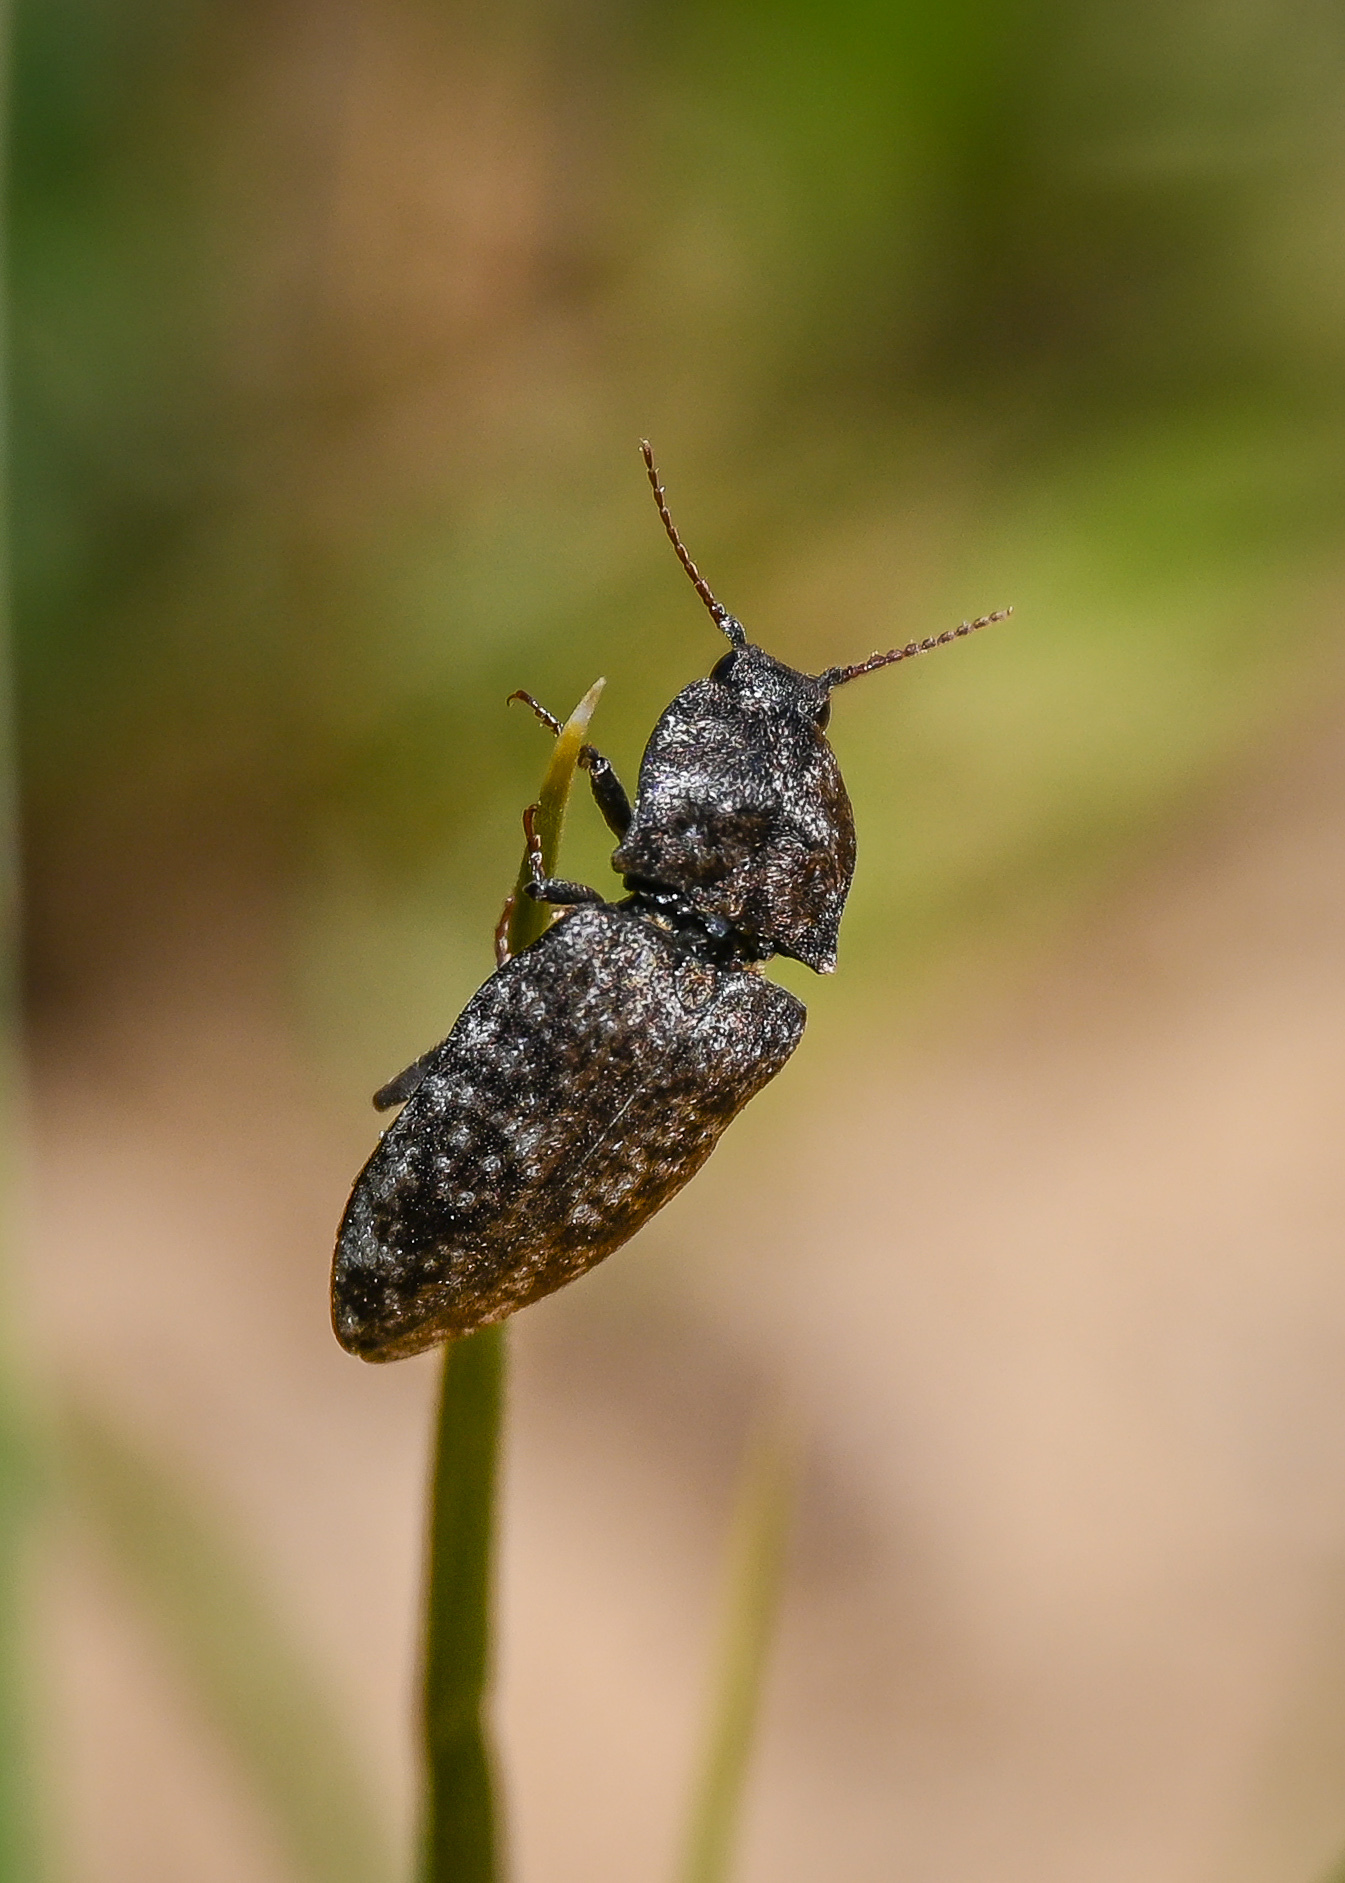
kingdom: Animalia
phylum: Arthropoda
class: Insecta
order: Coleoptera
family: Elateridae
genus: Agrypnus
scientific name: Agrypnus murinus
